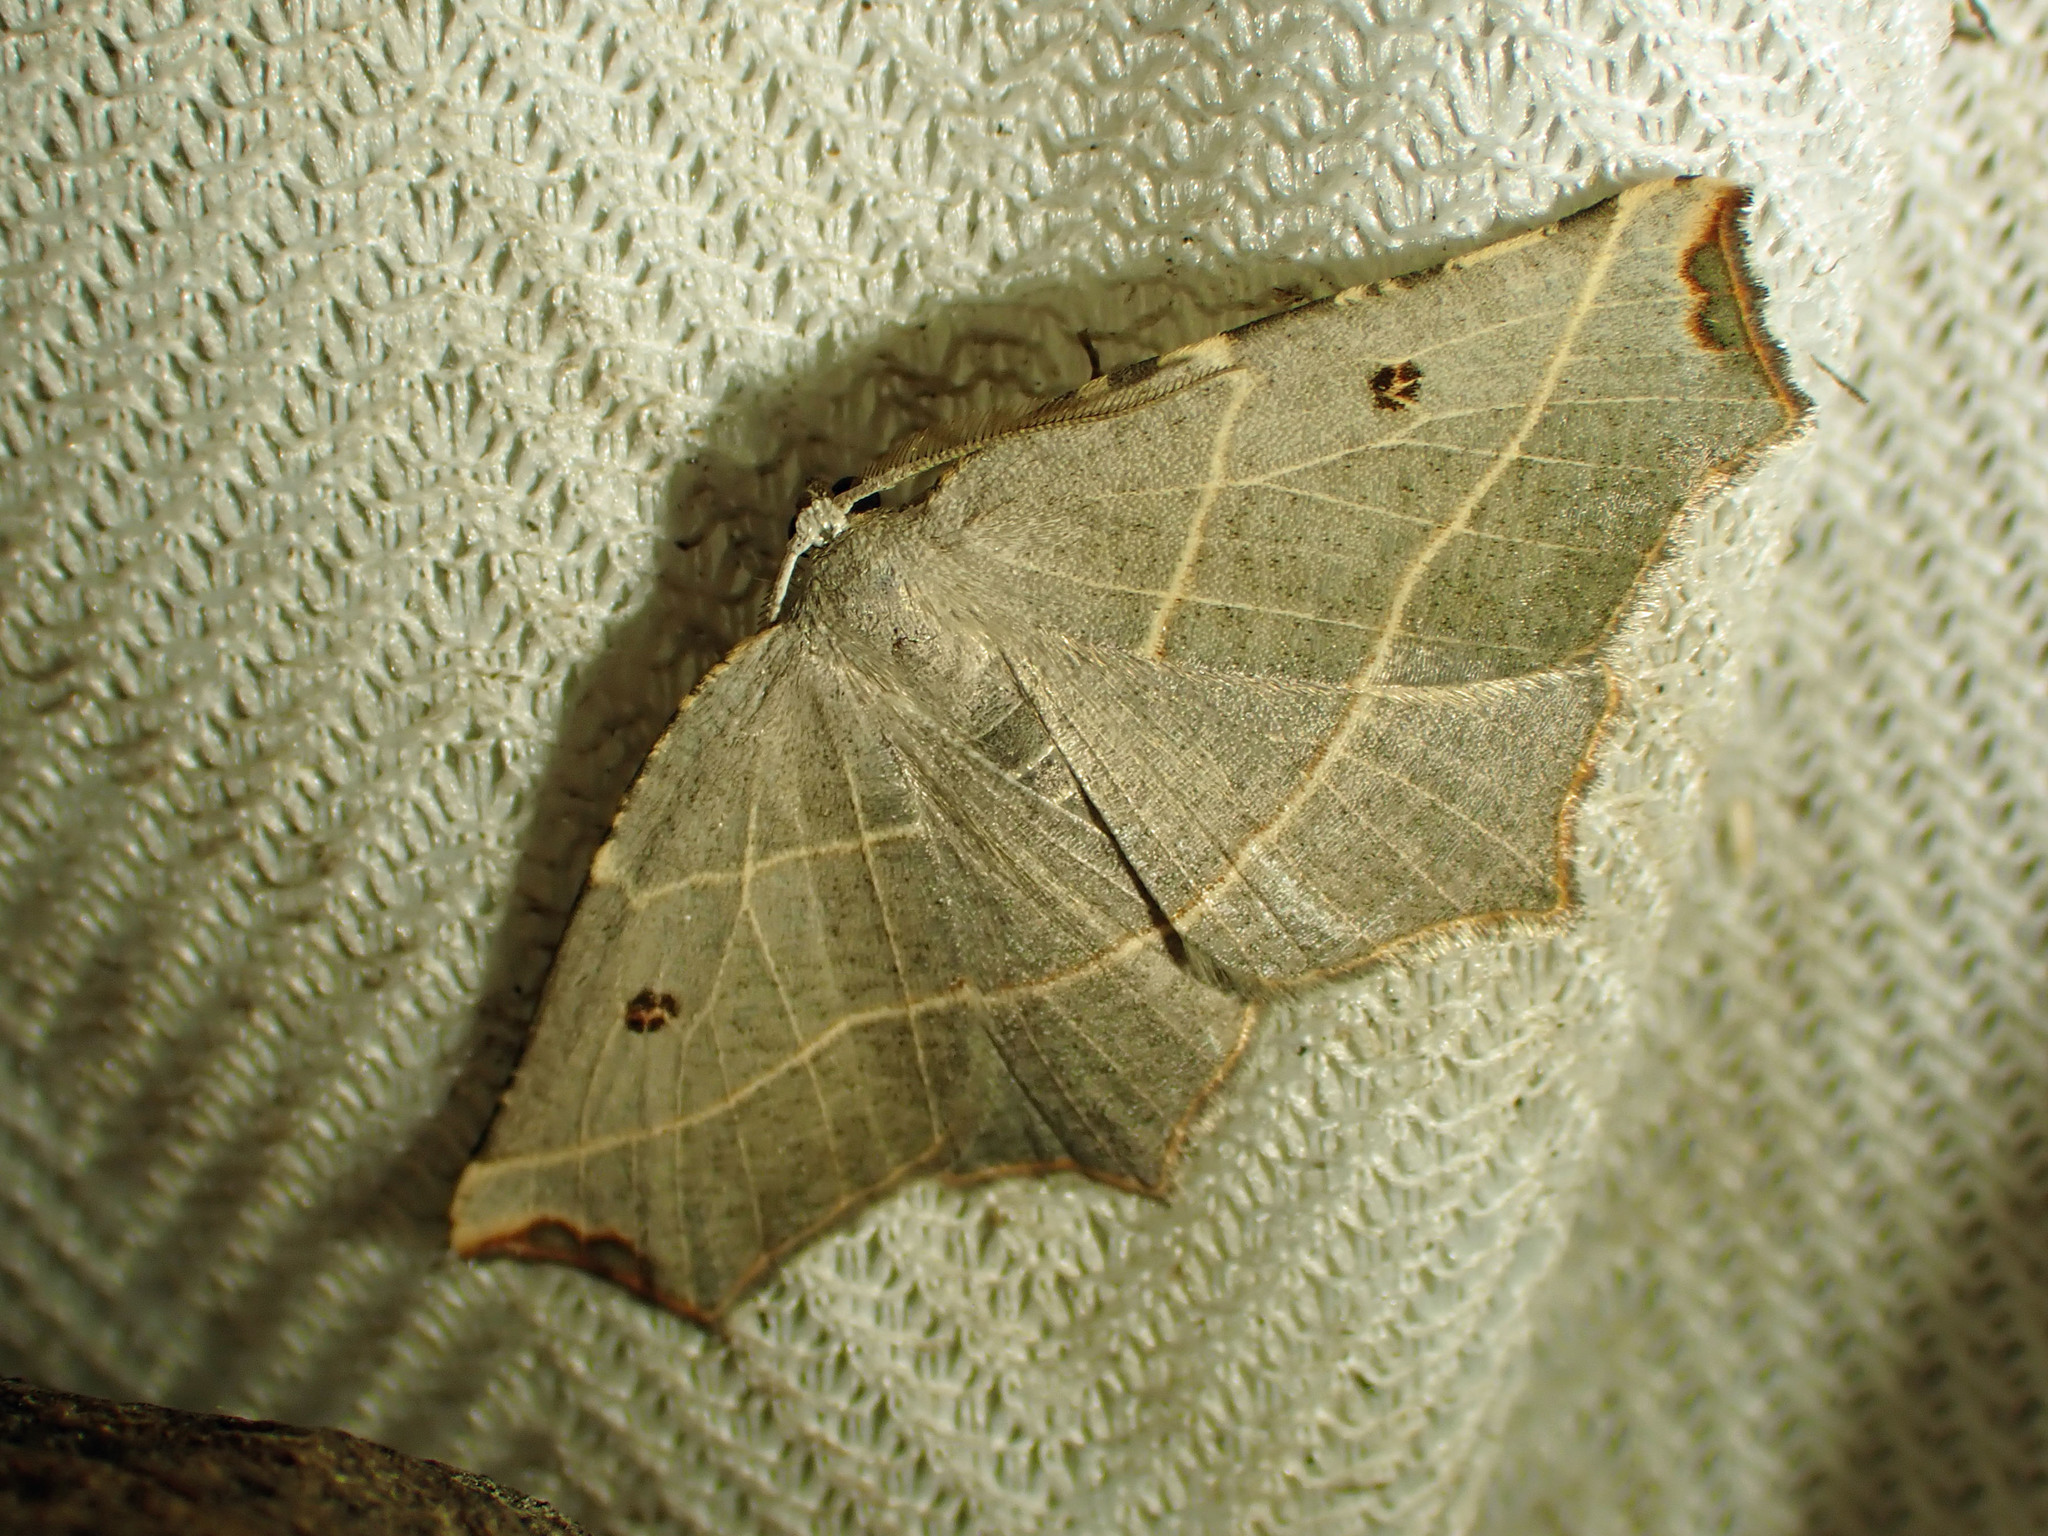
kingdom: Animalia
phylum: Arthropoda
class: Insecta
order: Lepidoptera
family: Geometridae
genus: Metanema
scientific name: Metanema inatomaria
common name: Pale metanema
